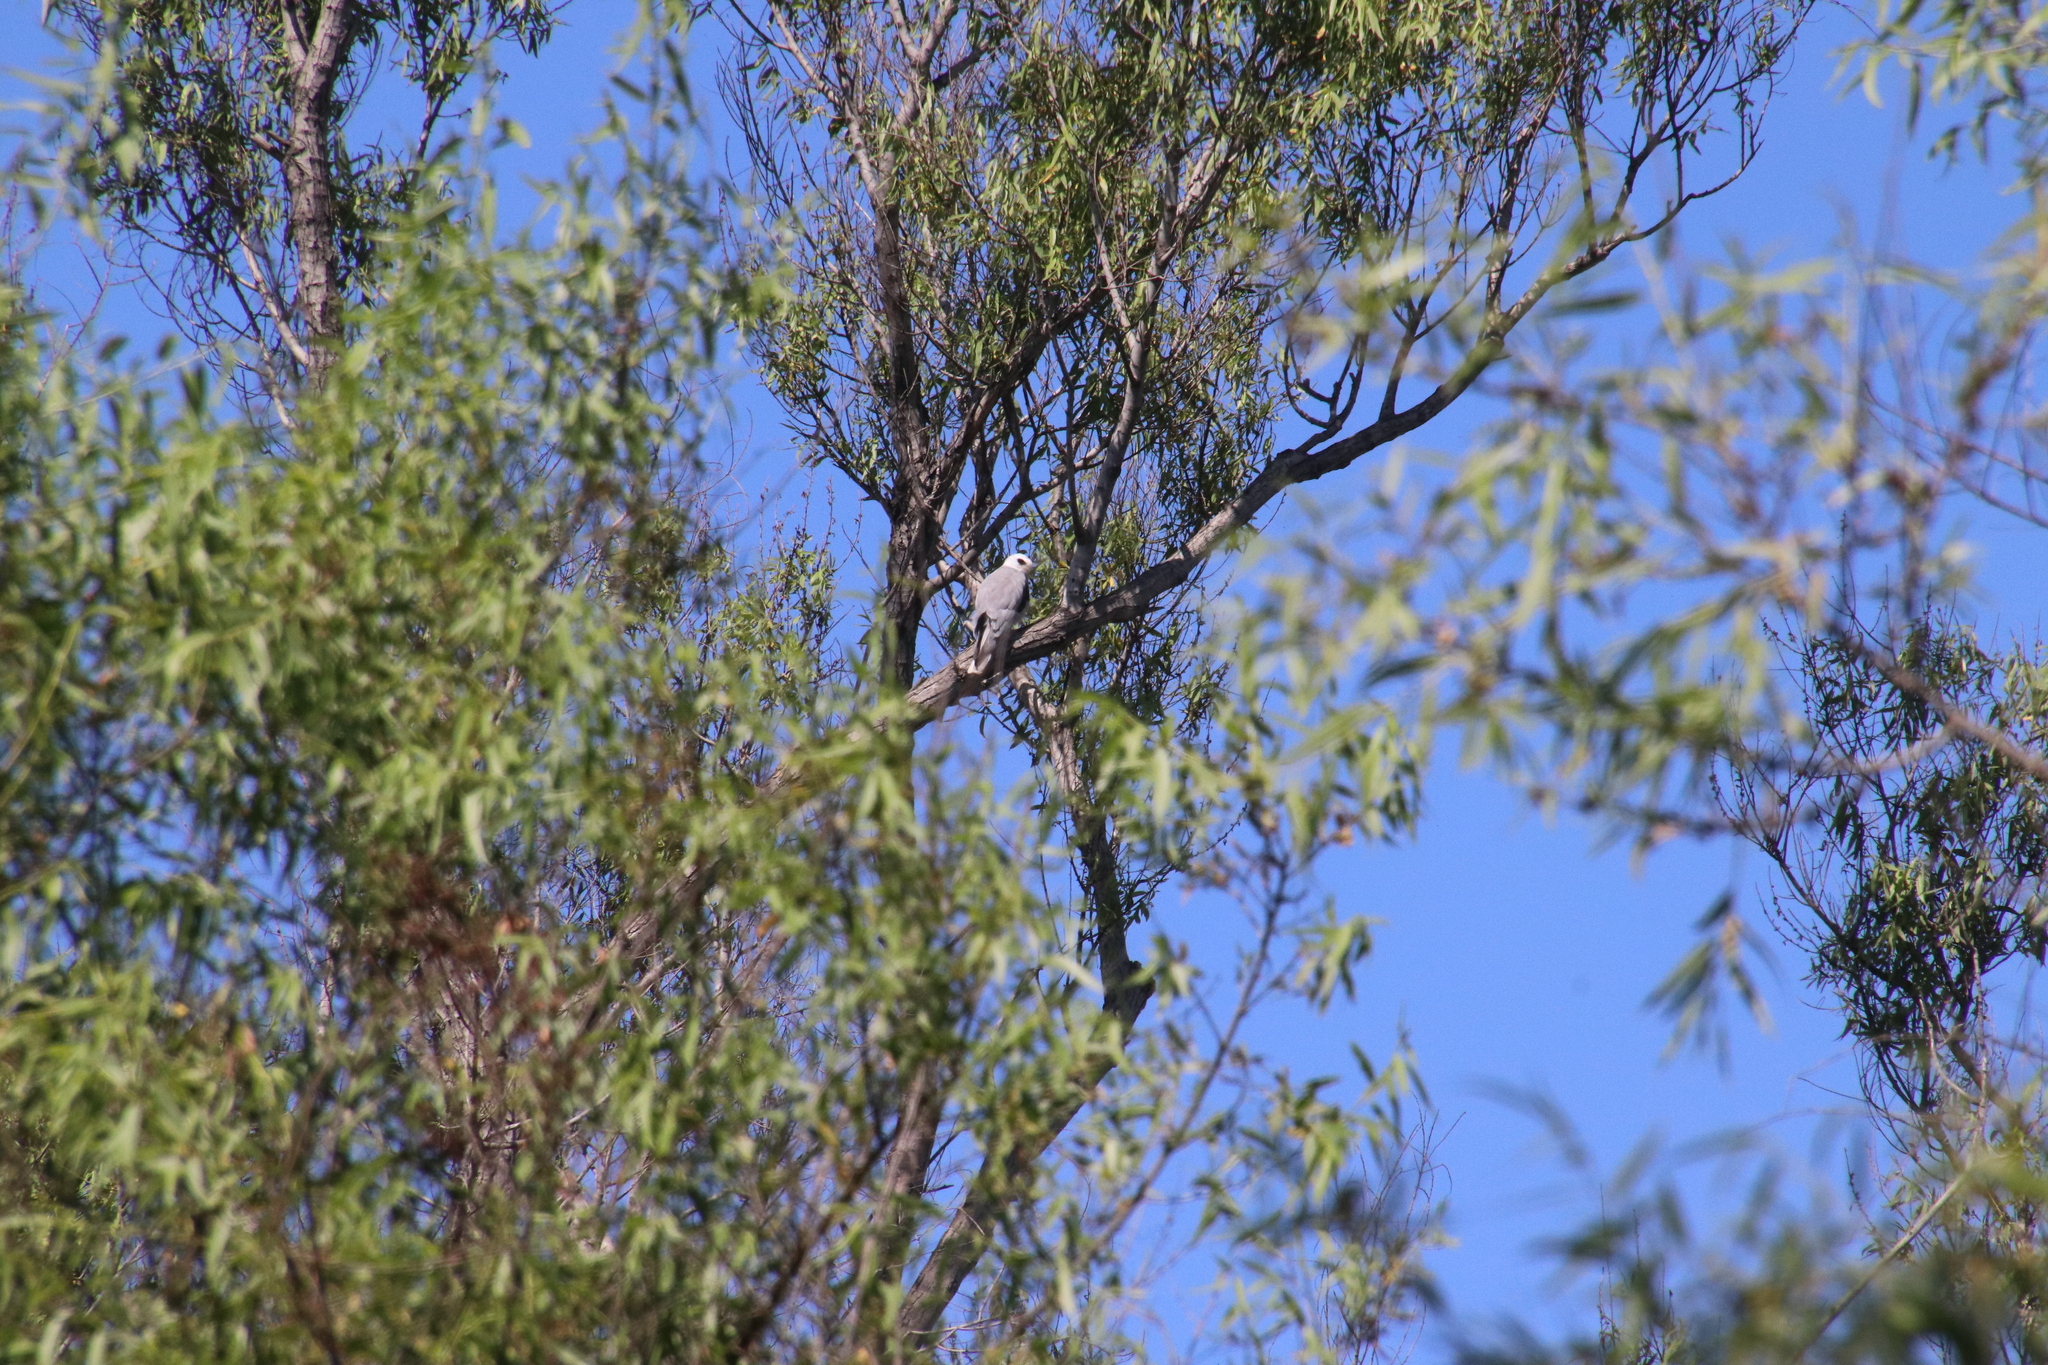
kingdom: Animalia
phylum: Chordata
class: Aves
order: Accipitriformes
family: Accipitridae
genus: Elanus
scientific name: Elanus leucurus
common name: White-tailed kite
